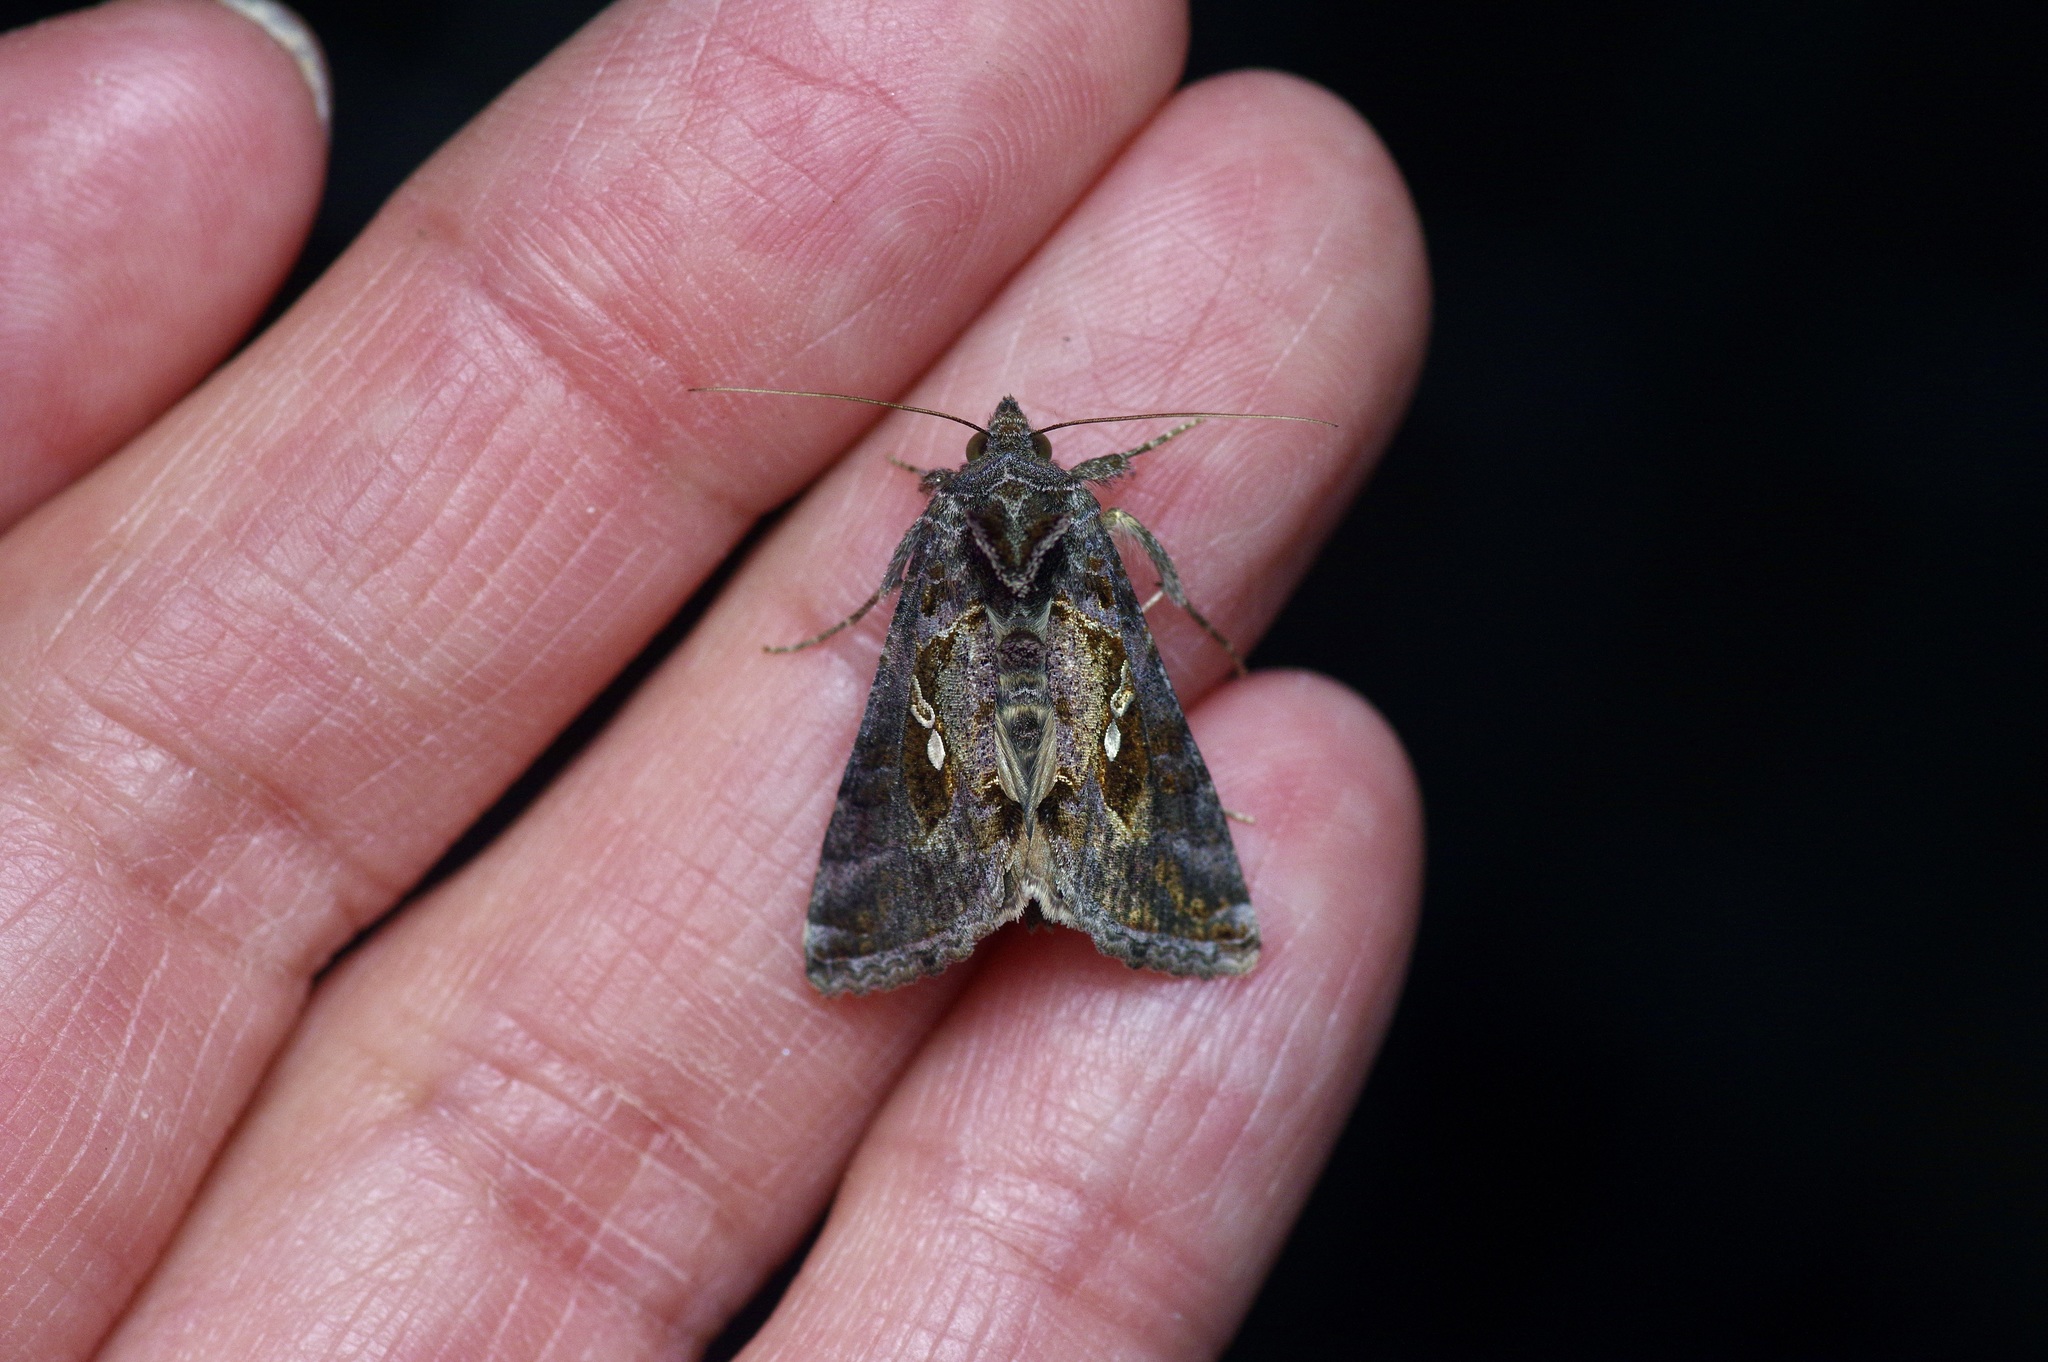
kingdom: Animalia
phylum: Arthropoda
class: Insecta
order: Lepidoptera
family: Noctuidae
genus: Chrysodeixis
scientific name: Chrysodeixis includens
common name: Cutworm moth
